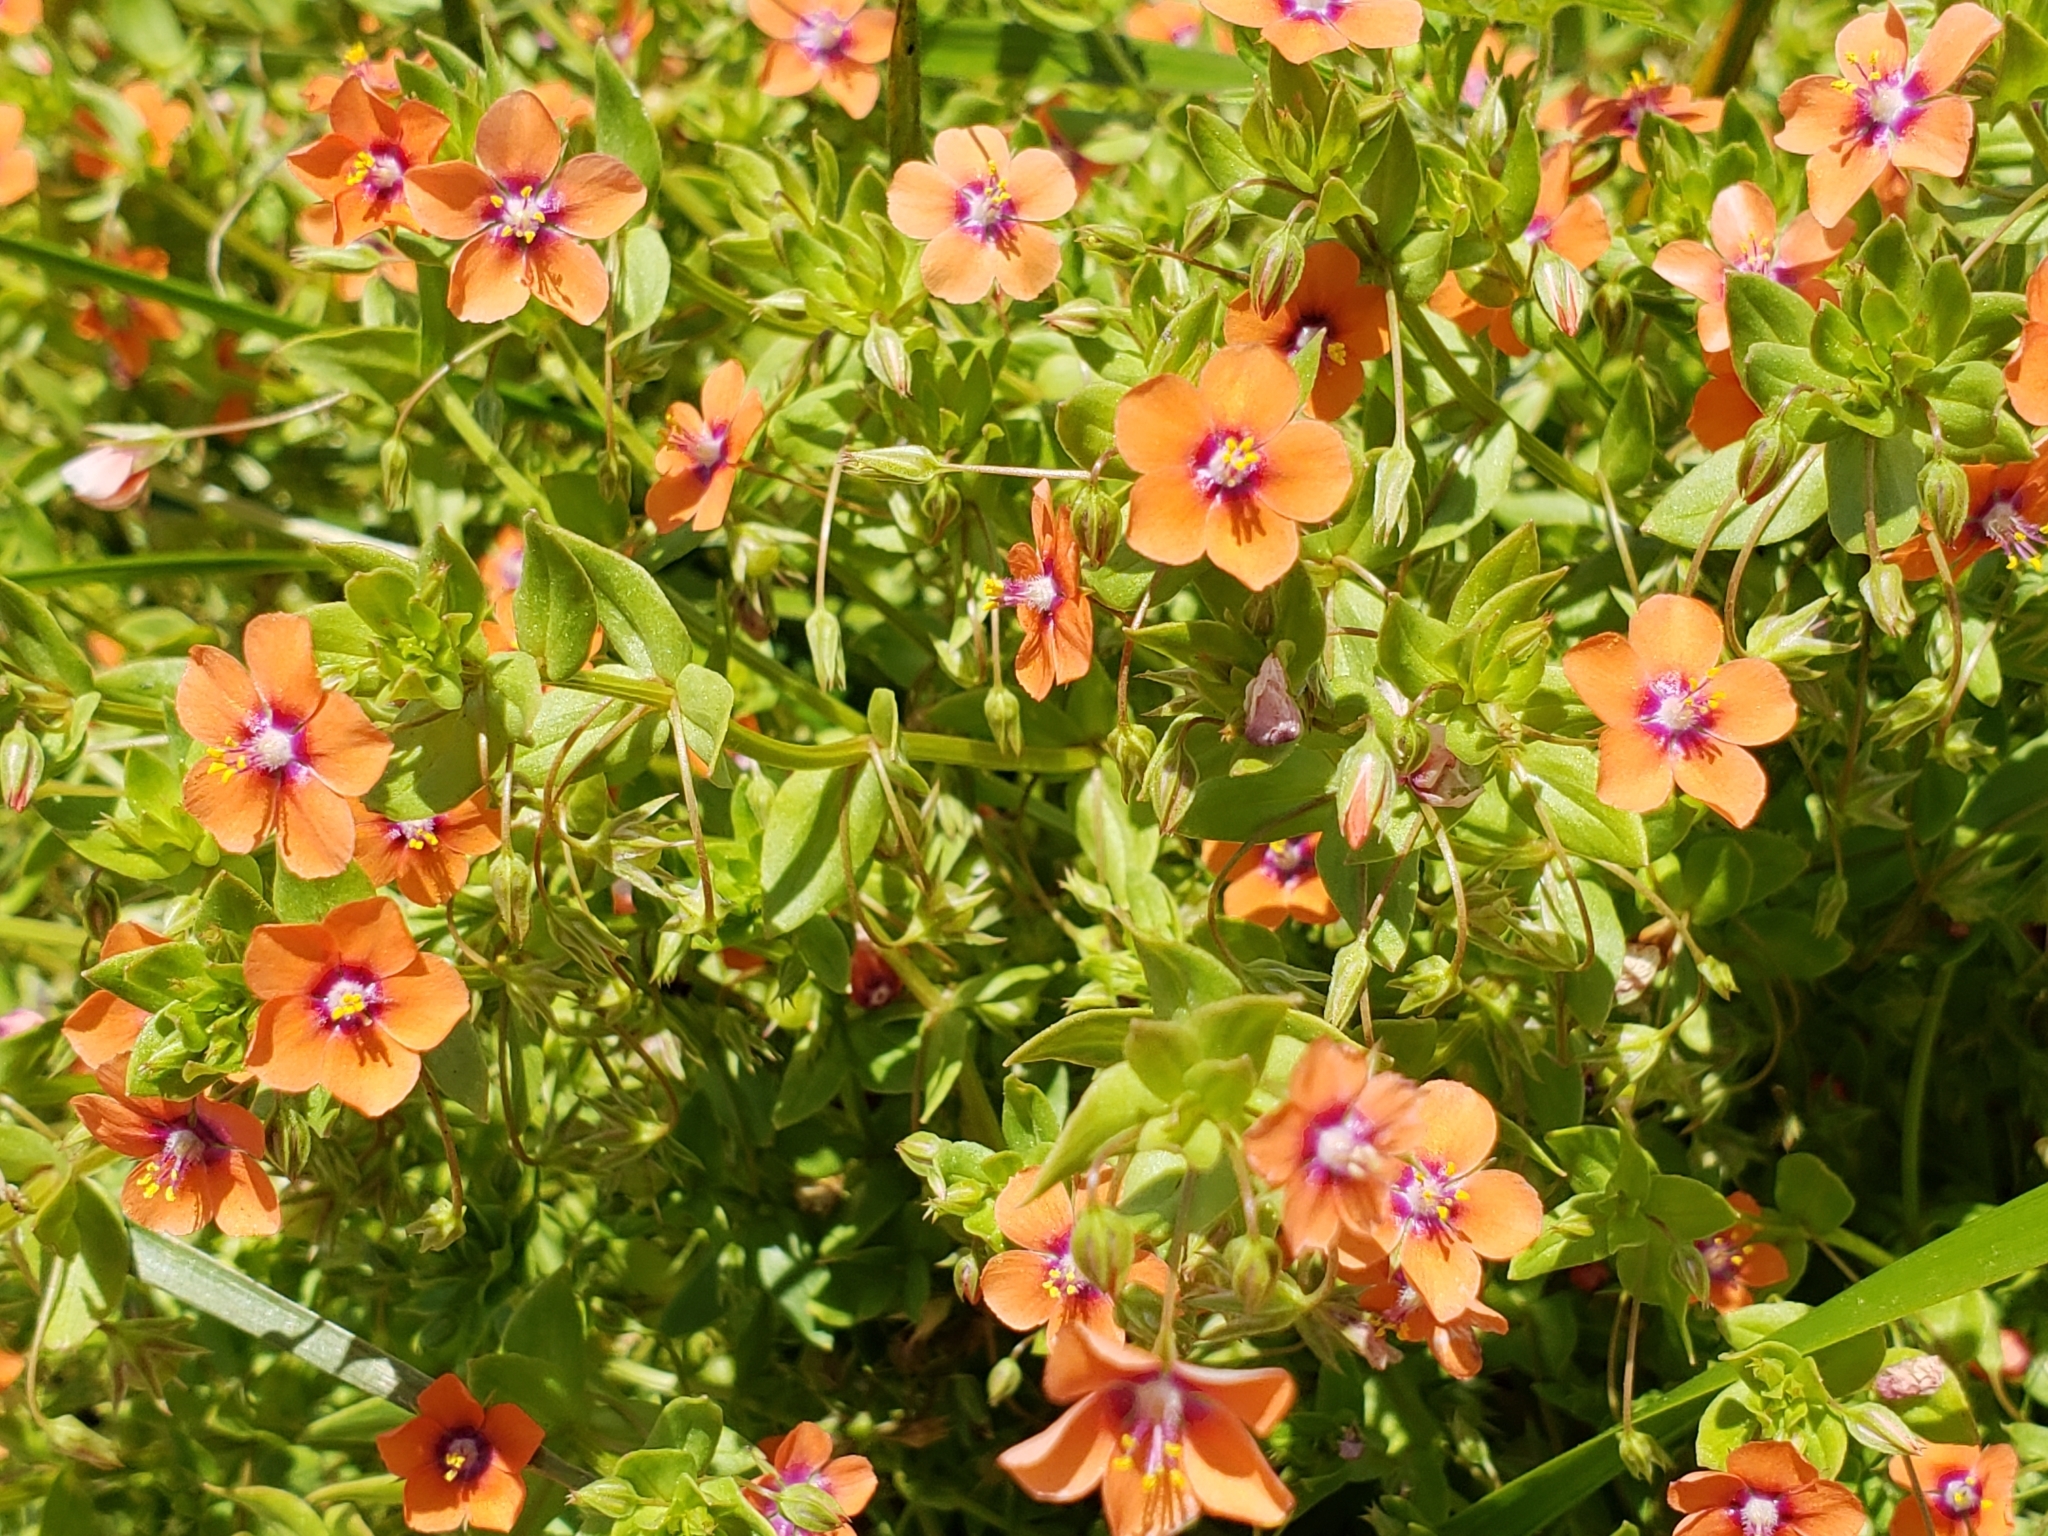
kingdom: Plantae
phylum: Tracheophyta
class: Magnoliopsida
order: Ericales
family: Primulaceae
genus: Lysimachia
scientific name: Lysimachia arvensis
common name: Scarlet pimpernel
